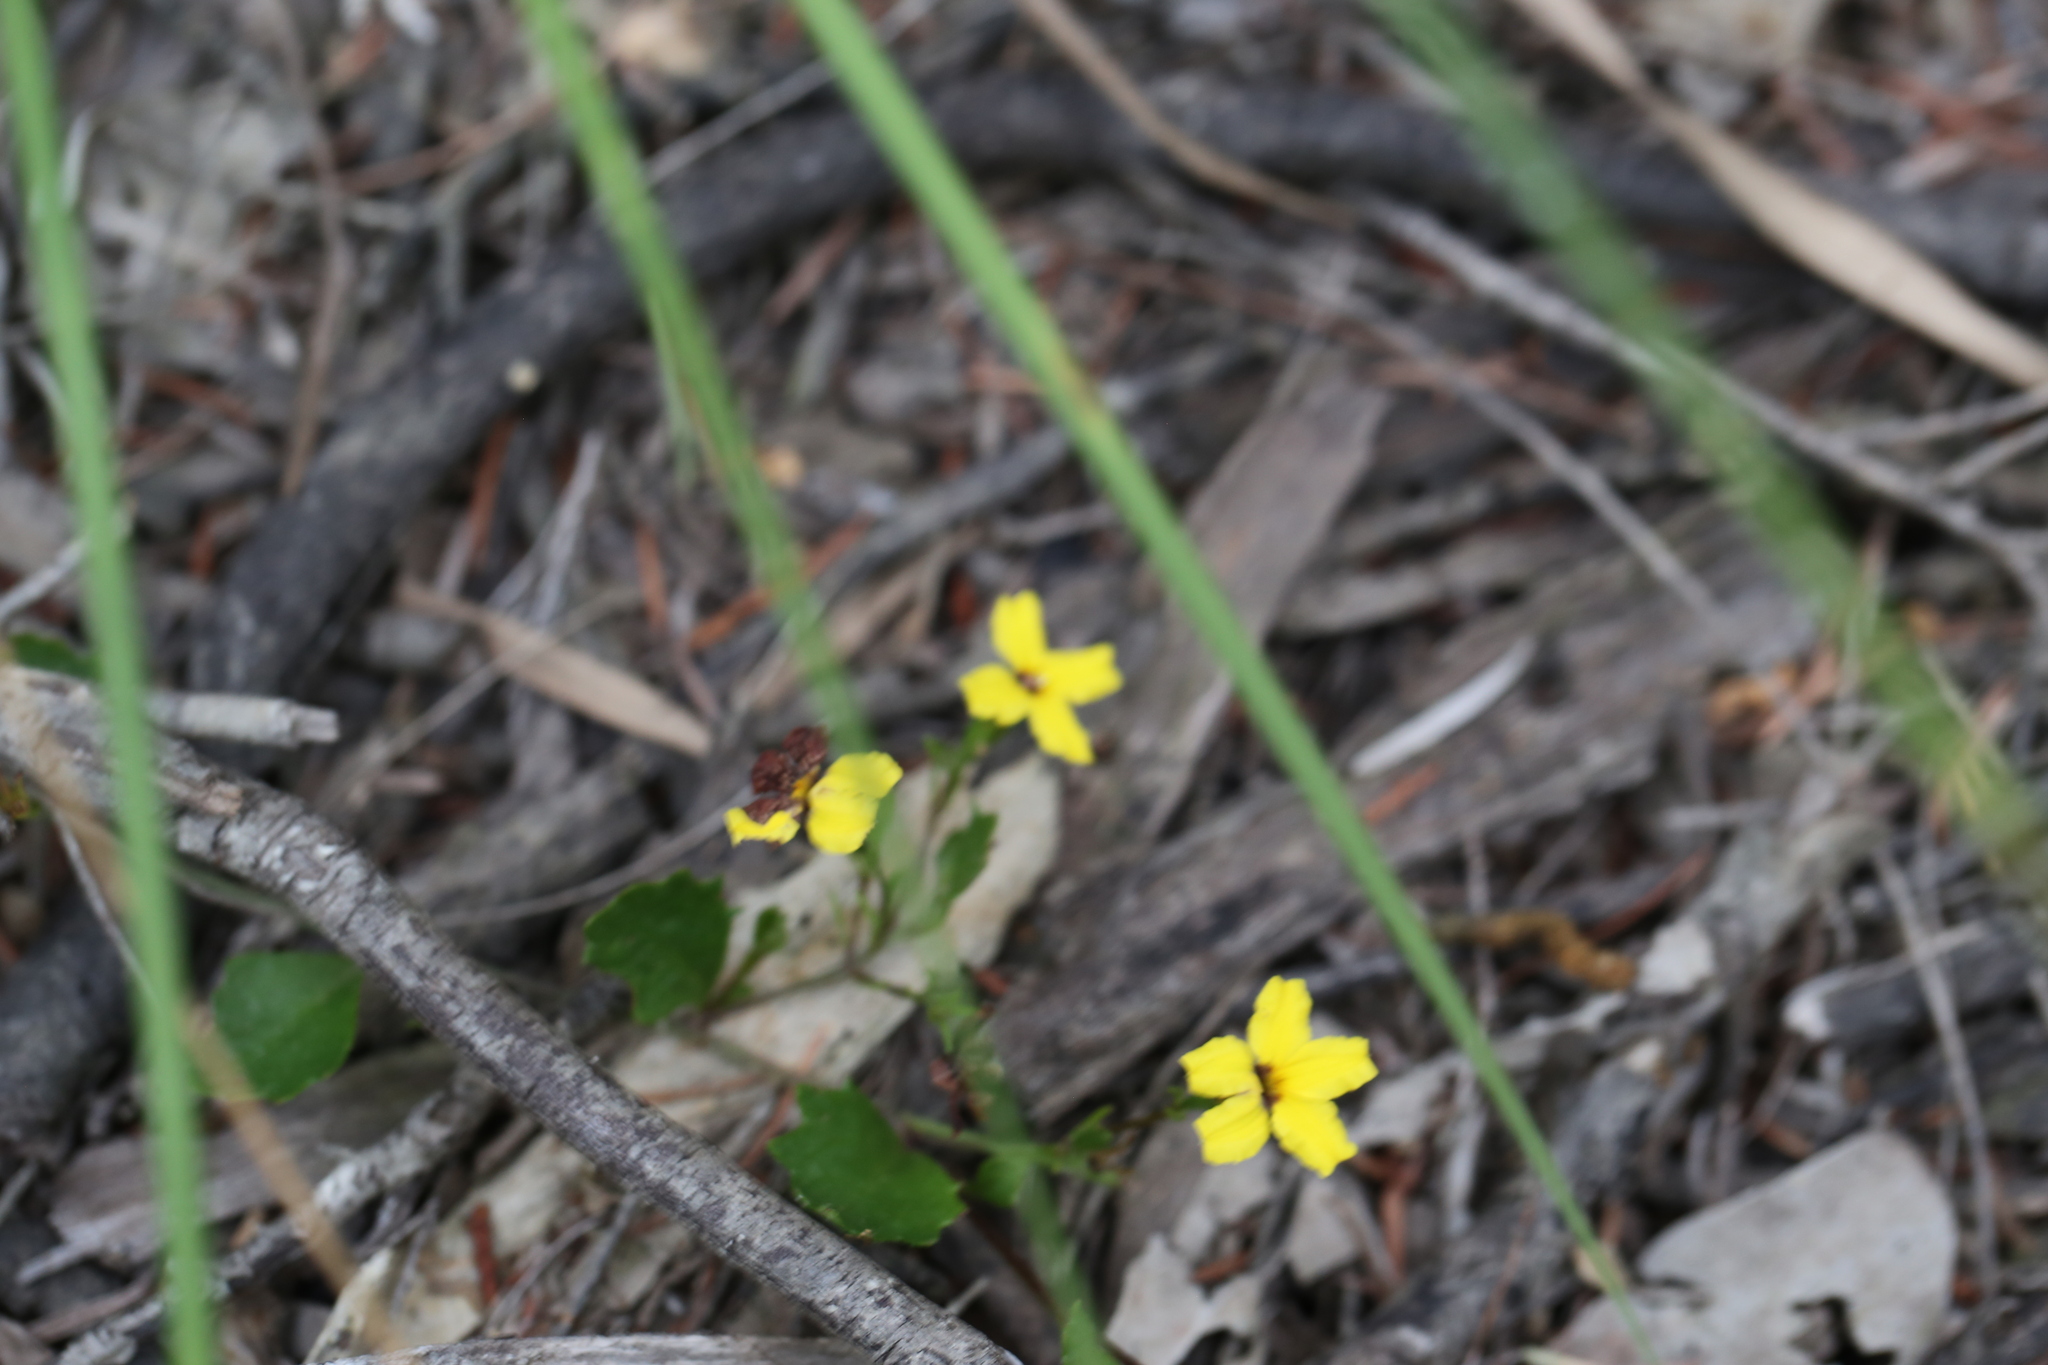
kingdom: Plantae
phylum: Tracheophyta
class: Magnoliopsida
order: Asterales
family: Goodeniaceae
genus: Goodenia
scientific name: Goodenia rotundifolia
